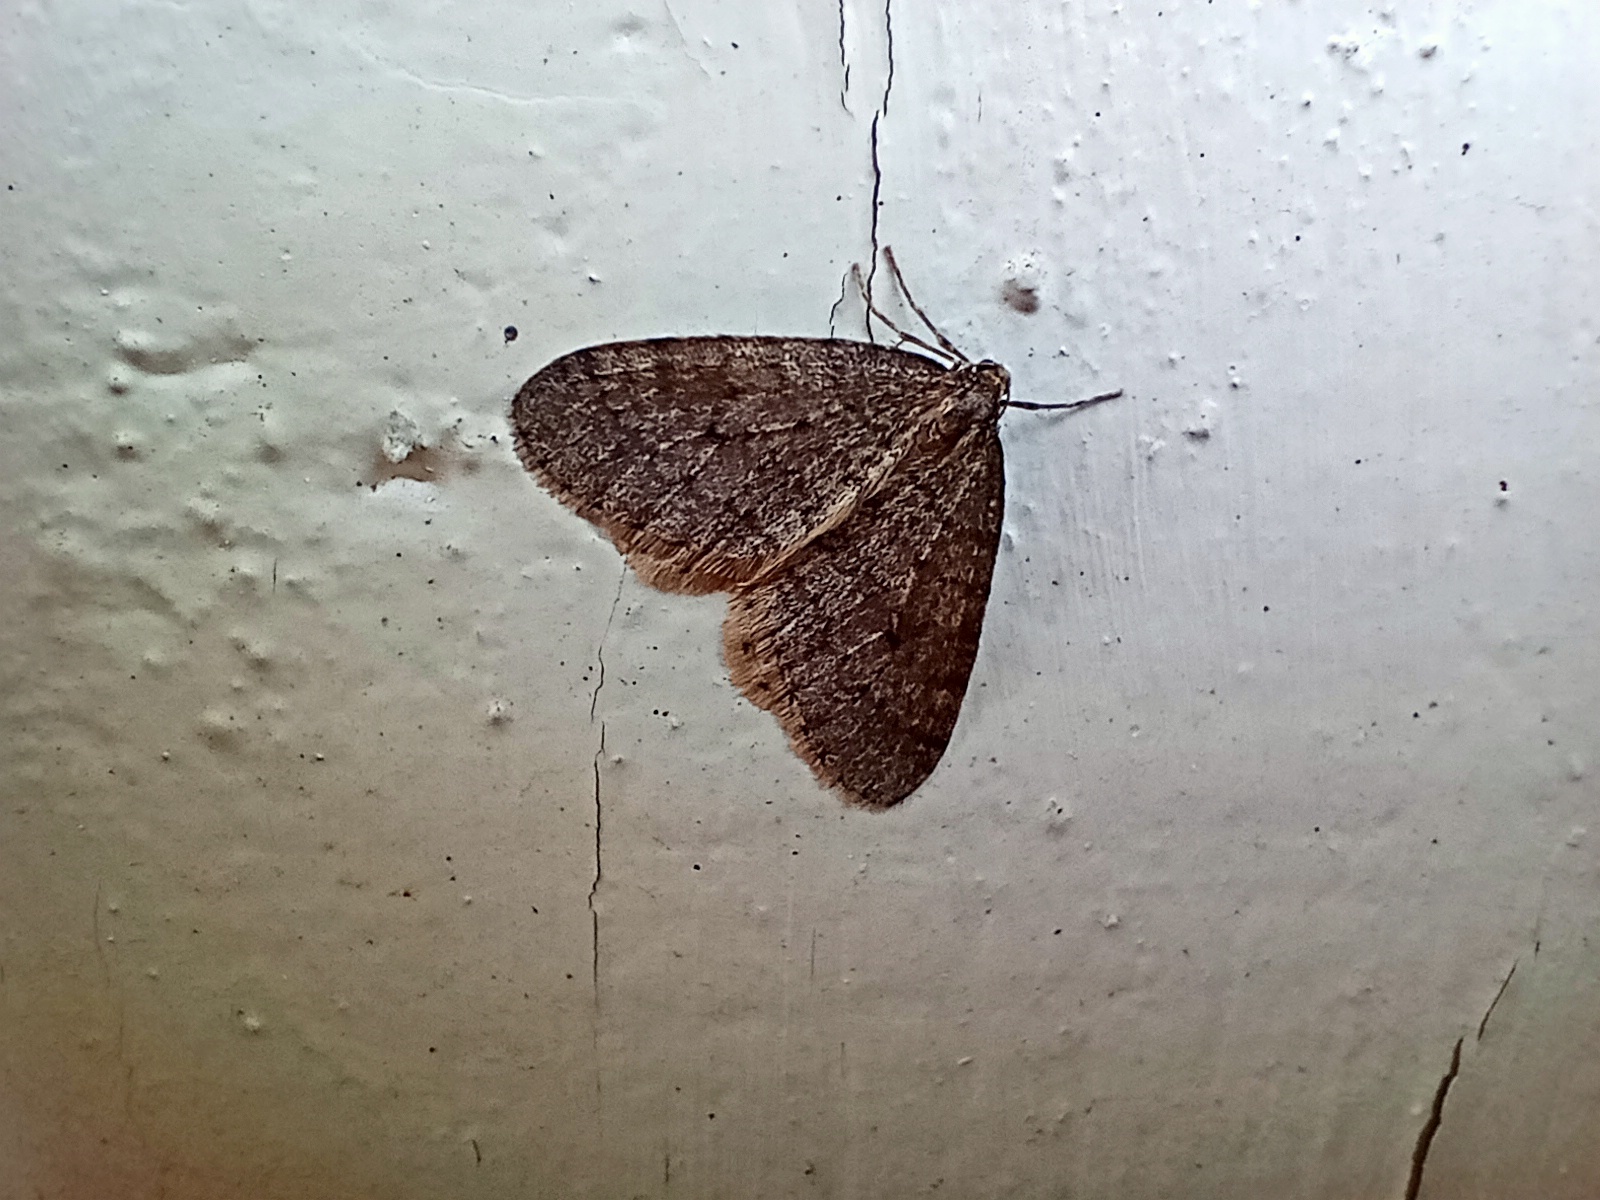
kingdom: Animalia
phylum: Arthropoda
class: Insecta
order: Lepidoptera
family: Geometridae
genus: Operophtera
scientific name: Operophtera brumata
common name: Winter moth
